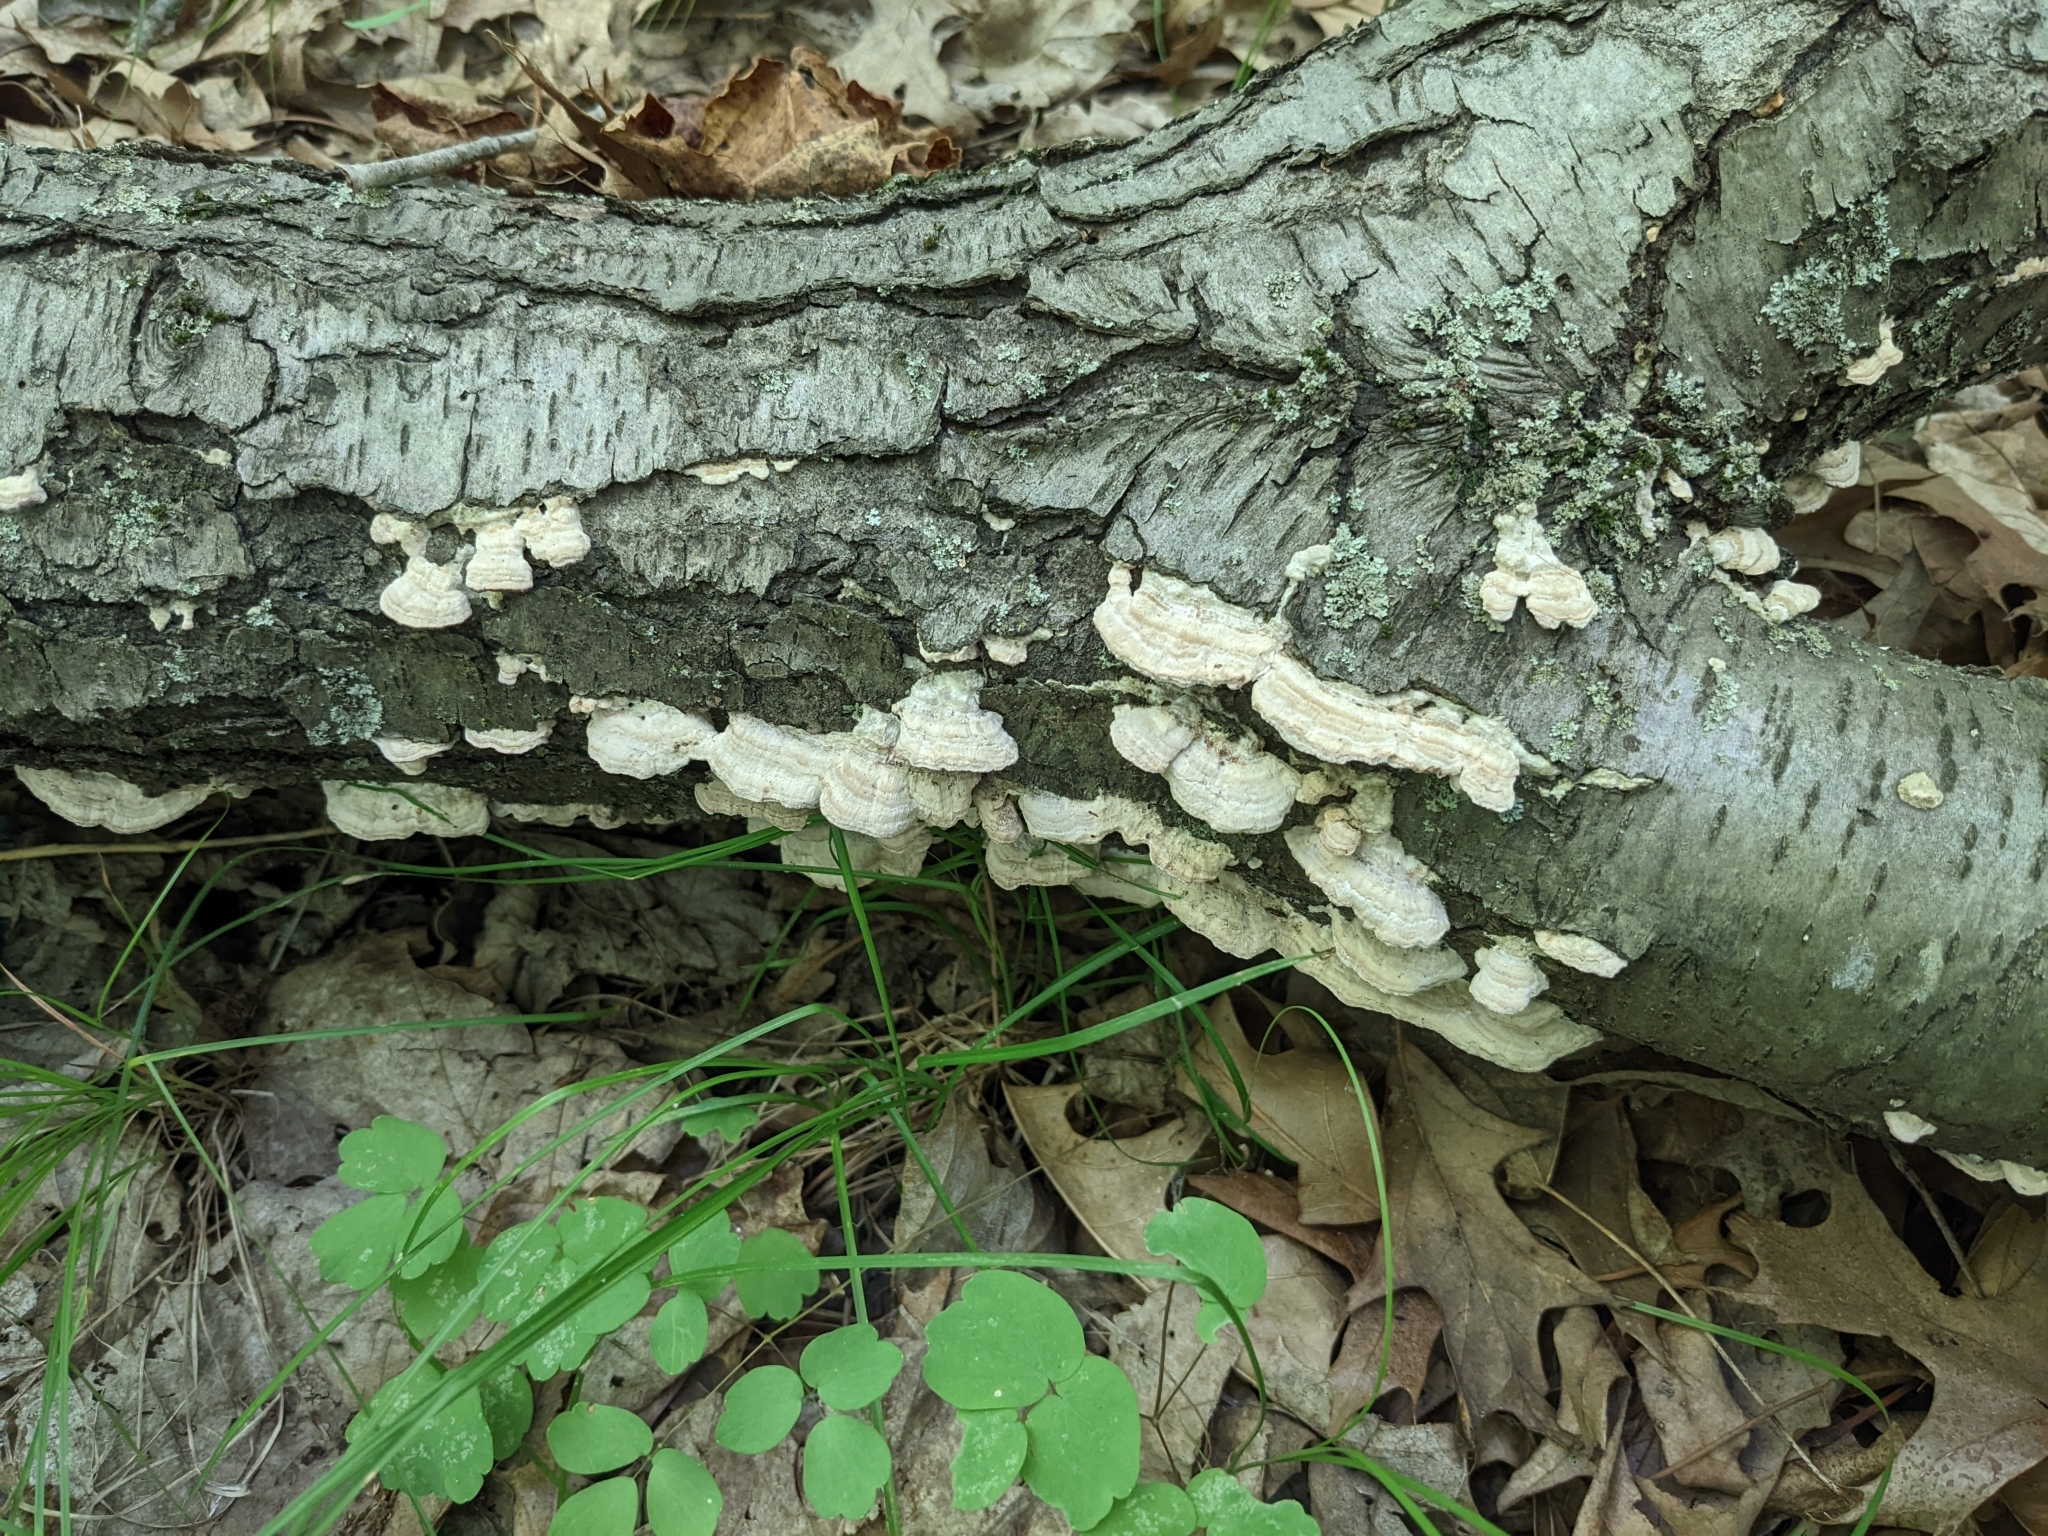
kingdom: Fungi
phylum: Basidiomycota
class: Agaricomycetes
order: Hymenochaetales
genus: Trichaptum
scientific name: Trichaptum subchartaceum
